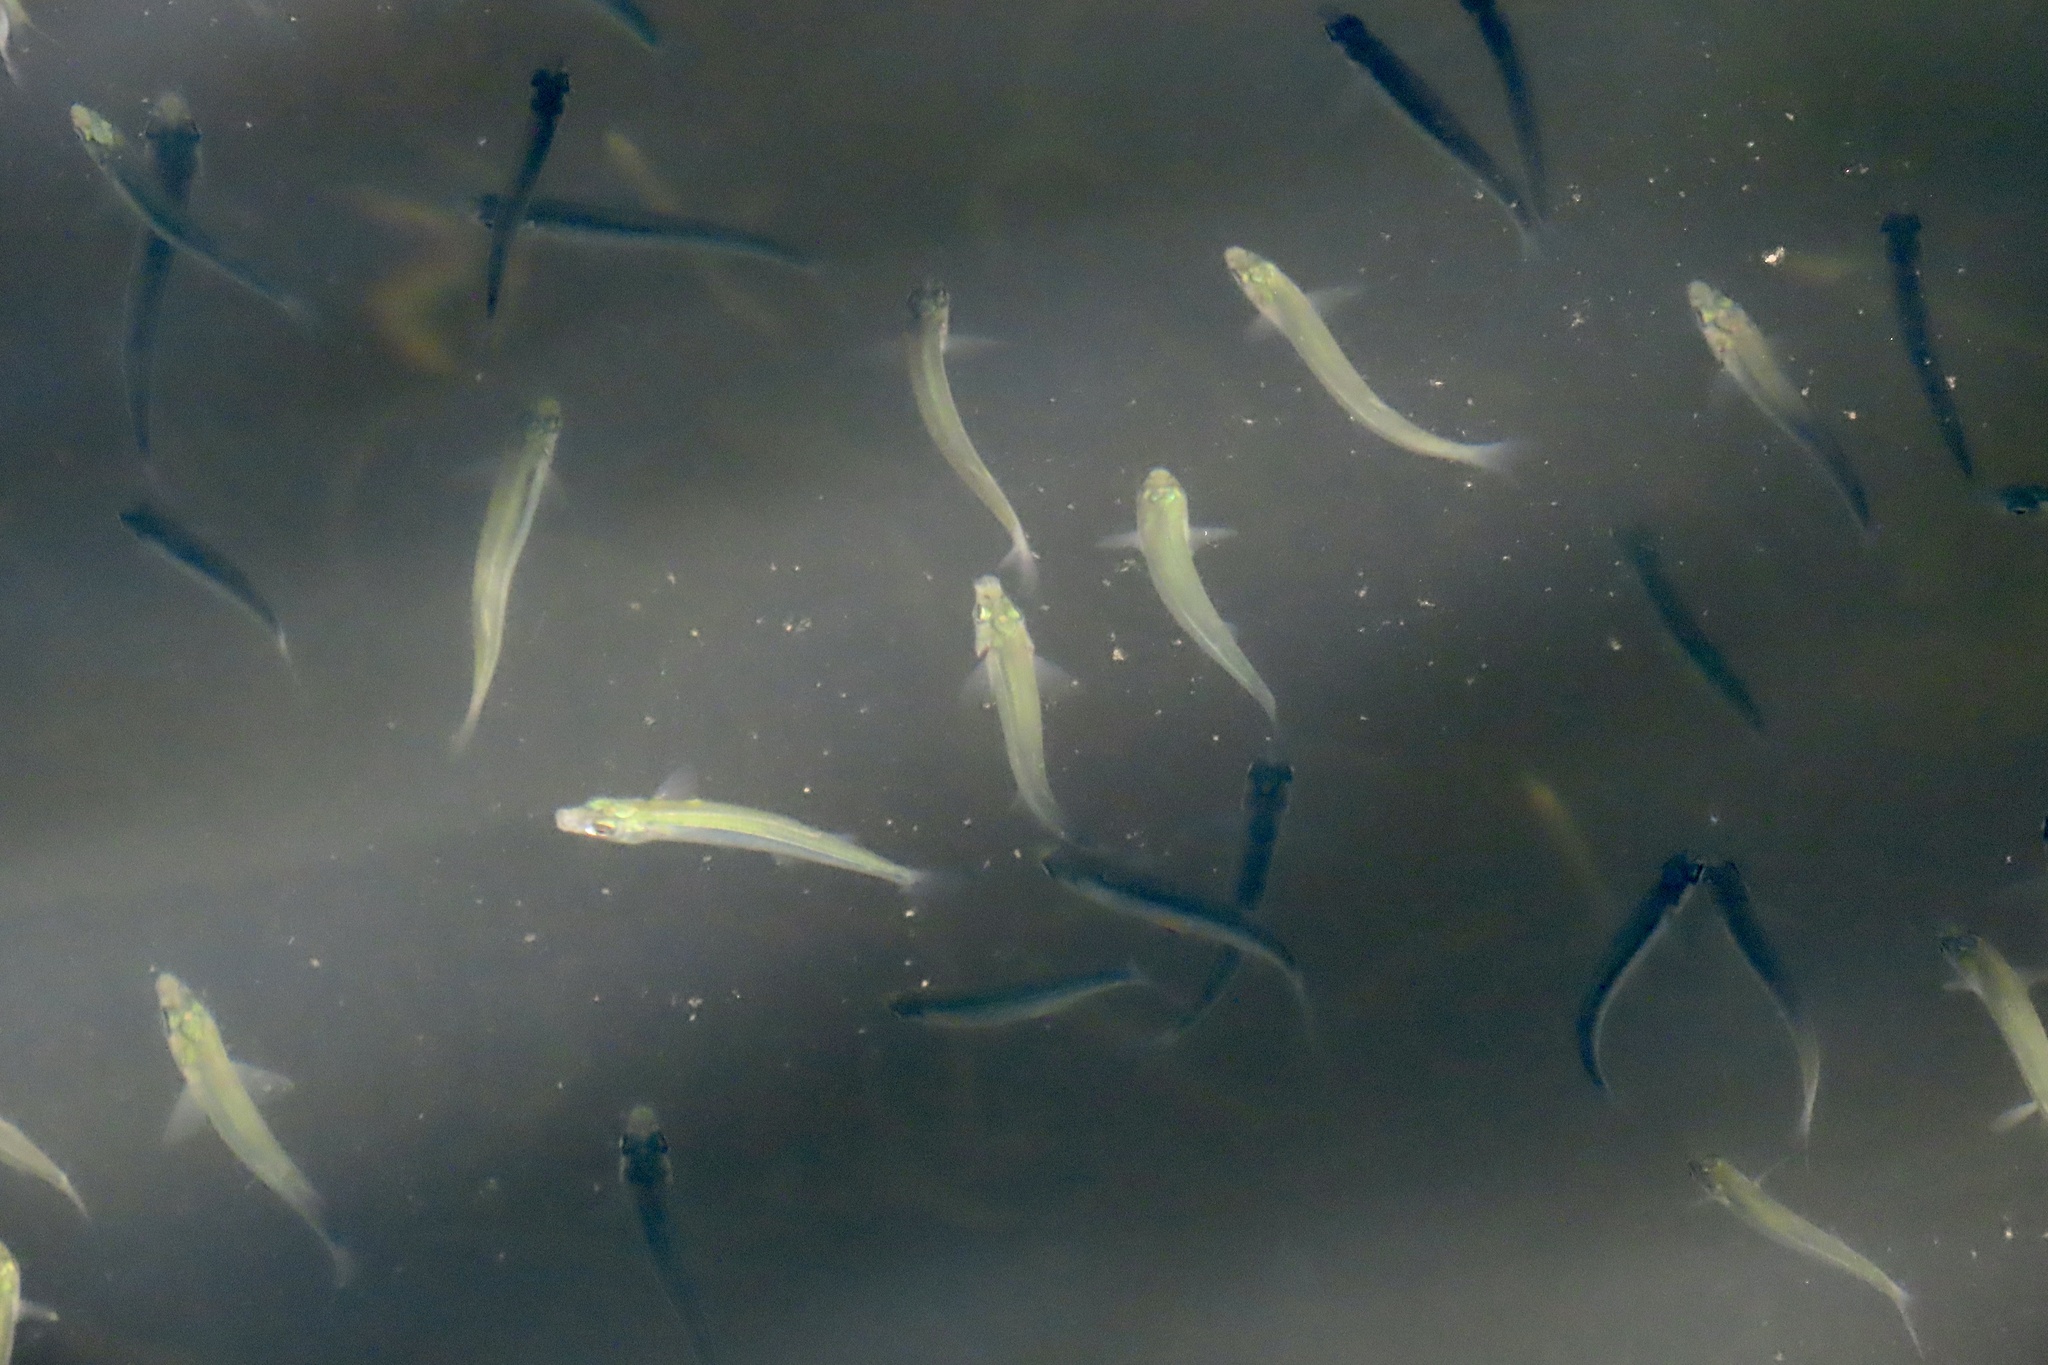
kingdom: Animalia
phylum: Chordata
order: Atheriniformes
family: Atherinopsidae
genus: Atherinops
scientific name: Atherinops affinis
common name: Topsmelt
